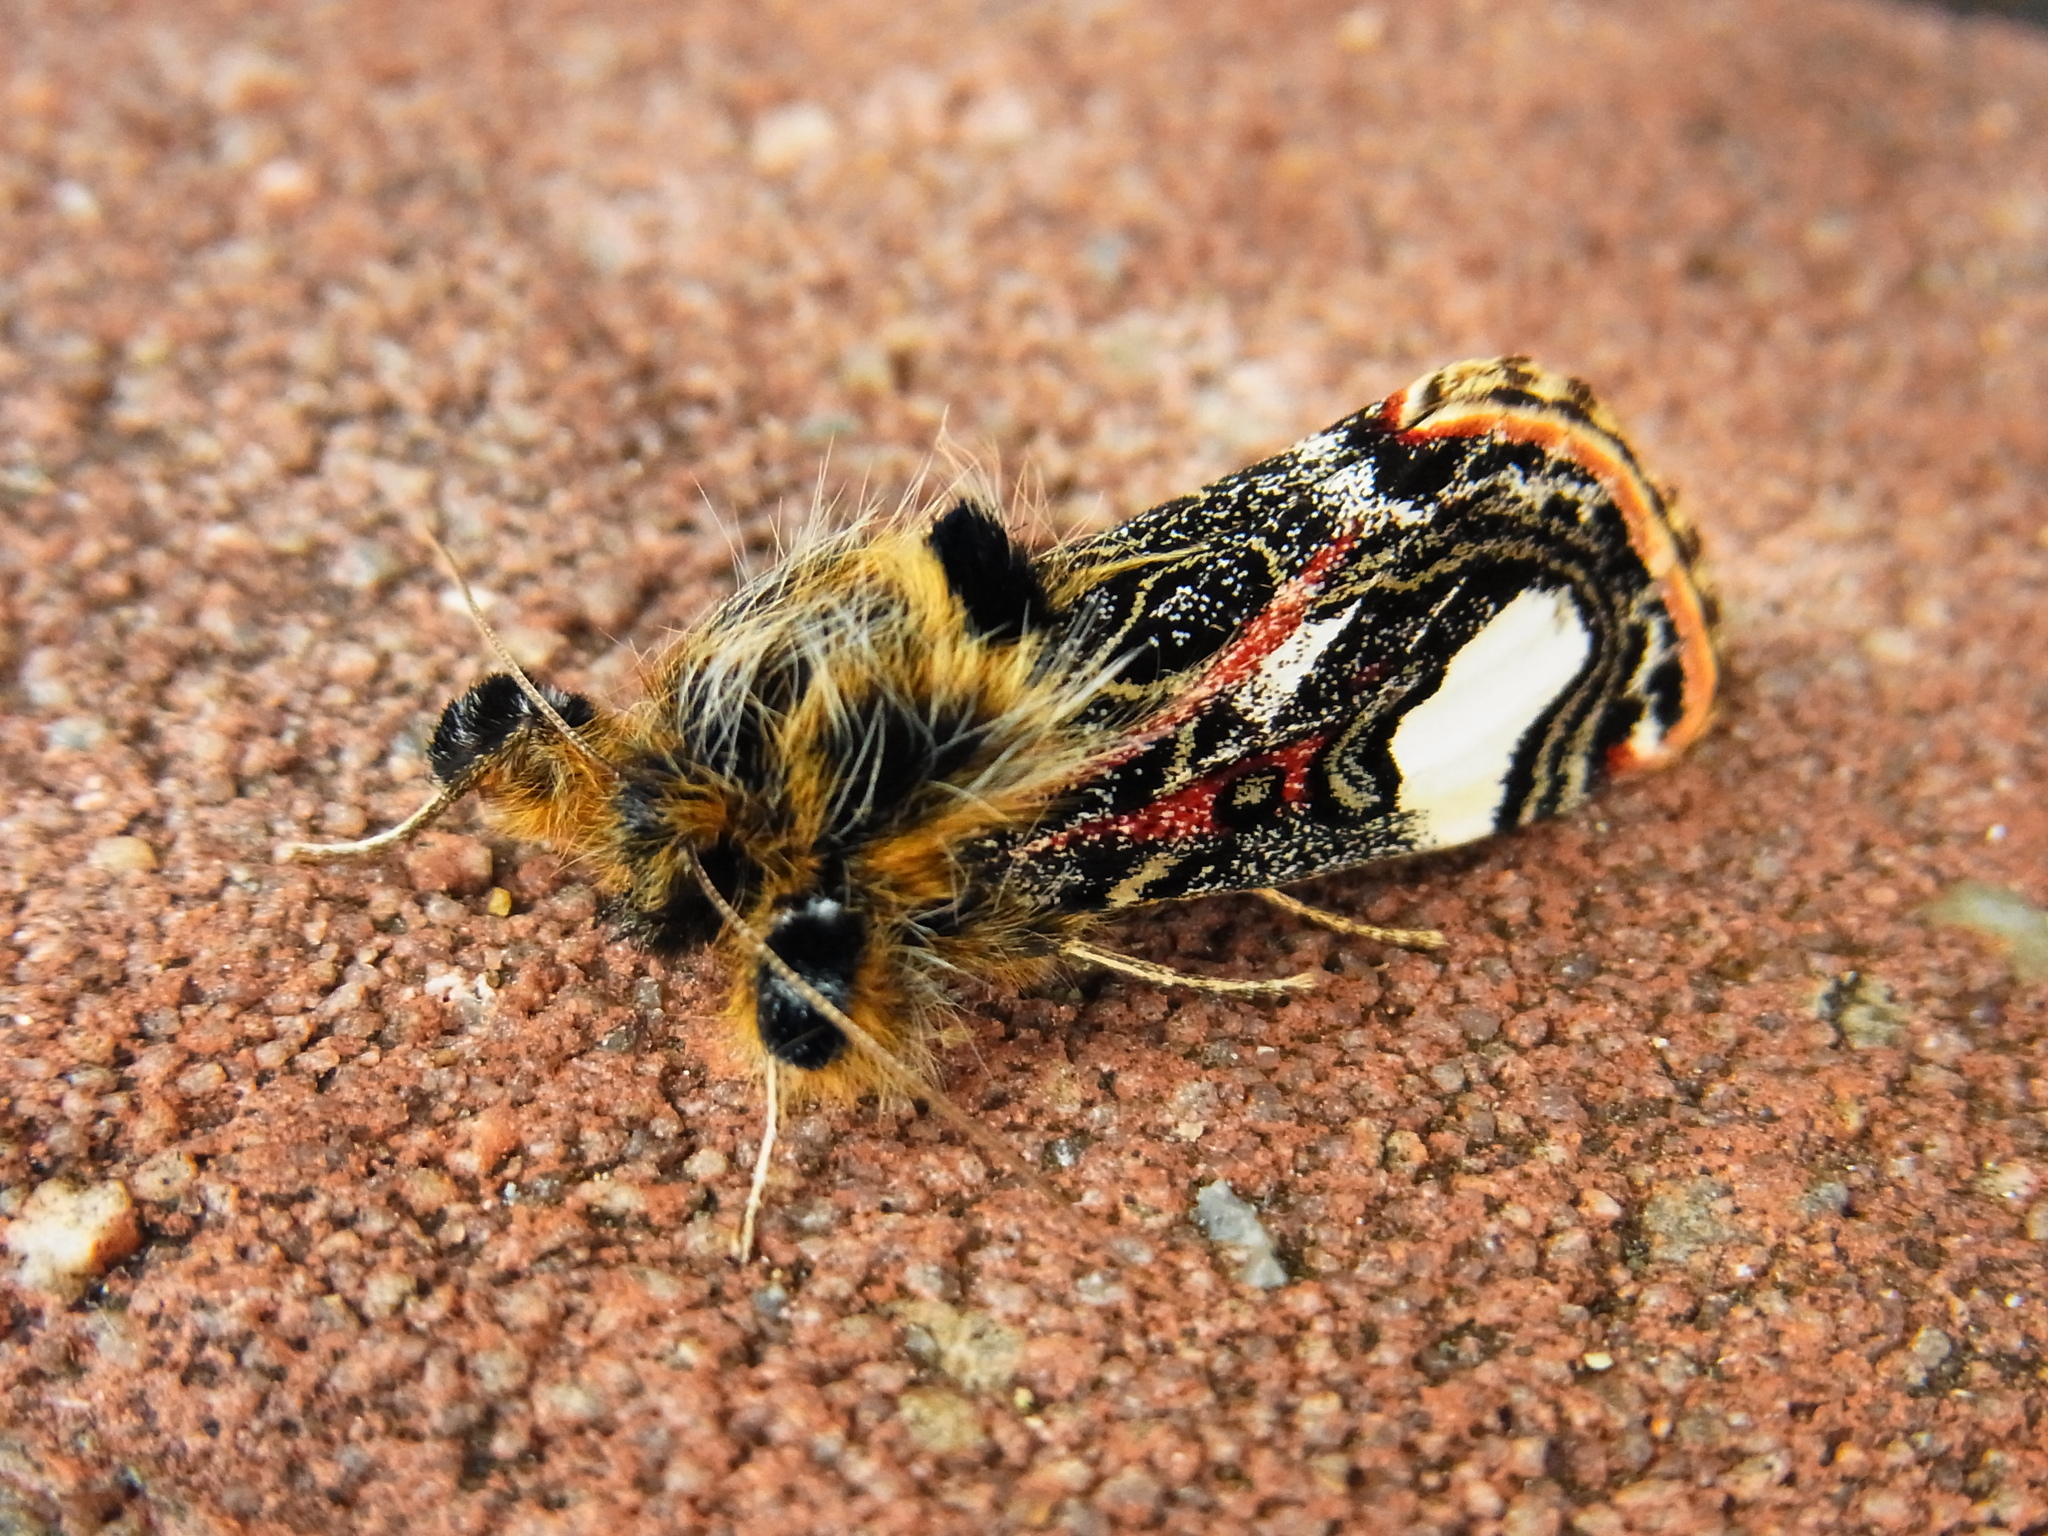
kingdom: Animalia
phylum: Arthropoda
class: Insecta
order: Lepidoptera
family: Noctuidae
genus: Maikona
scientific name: Maikona jezoensis
